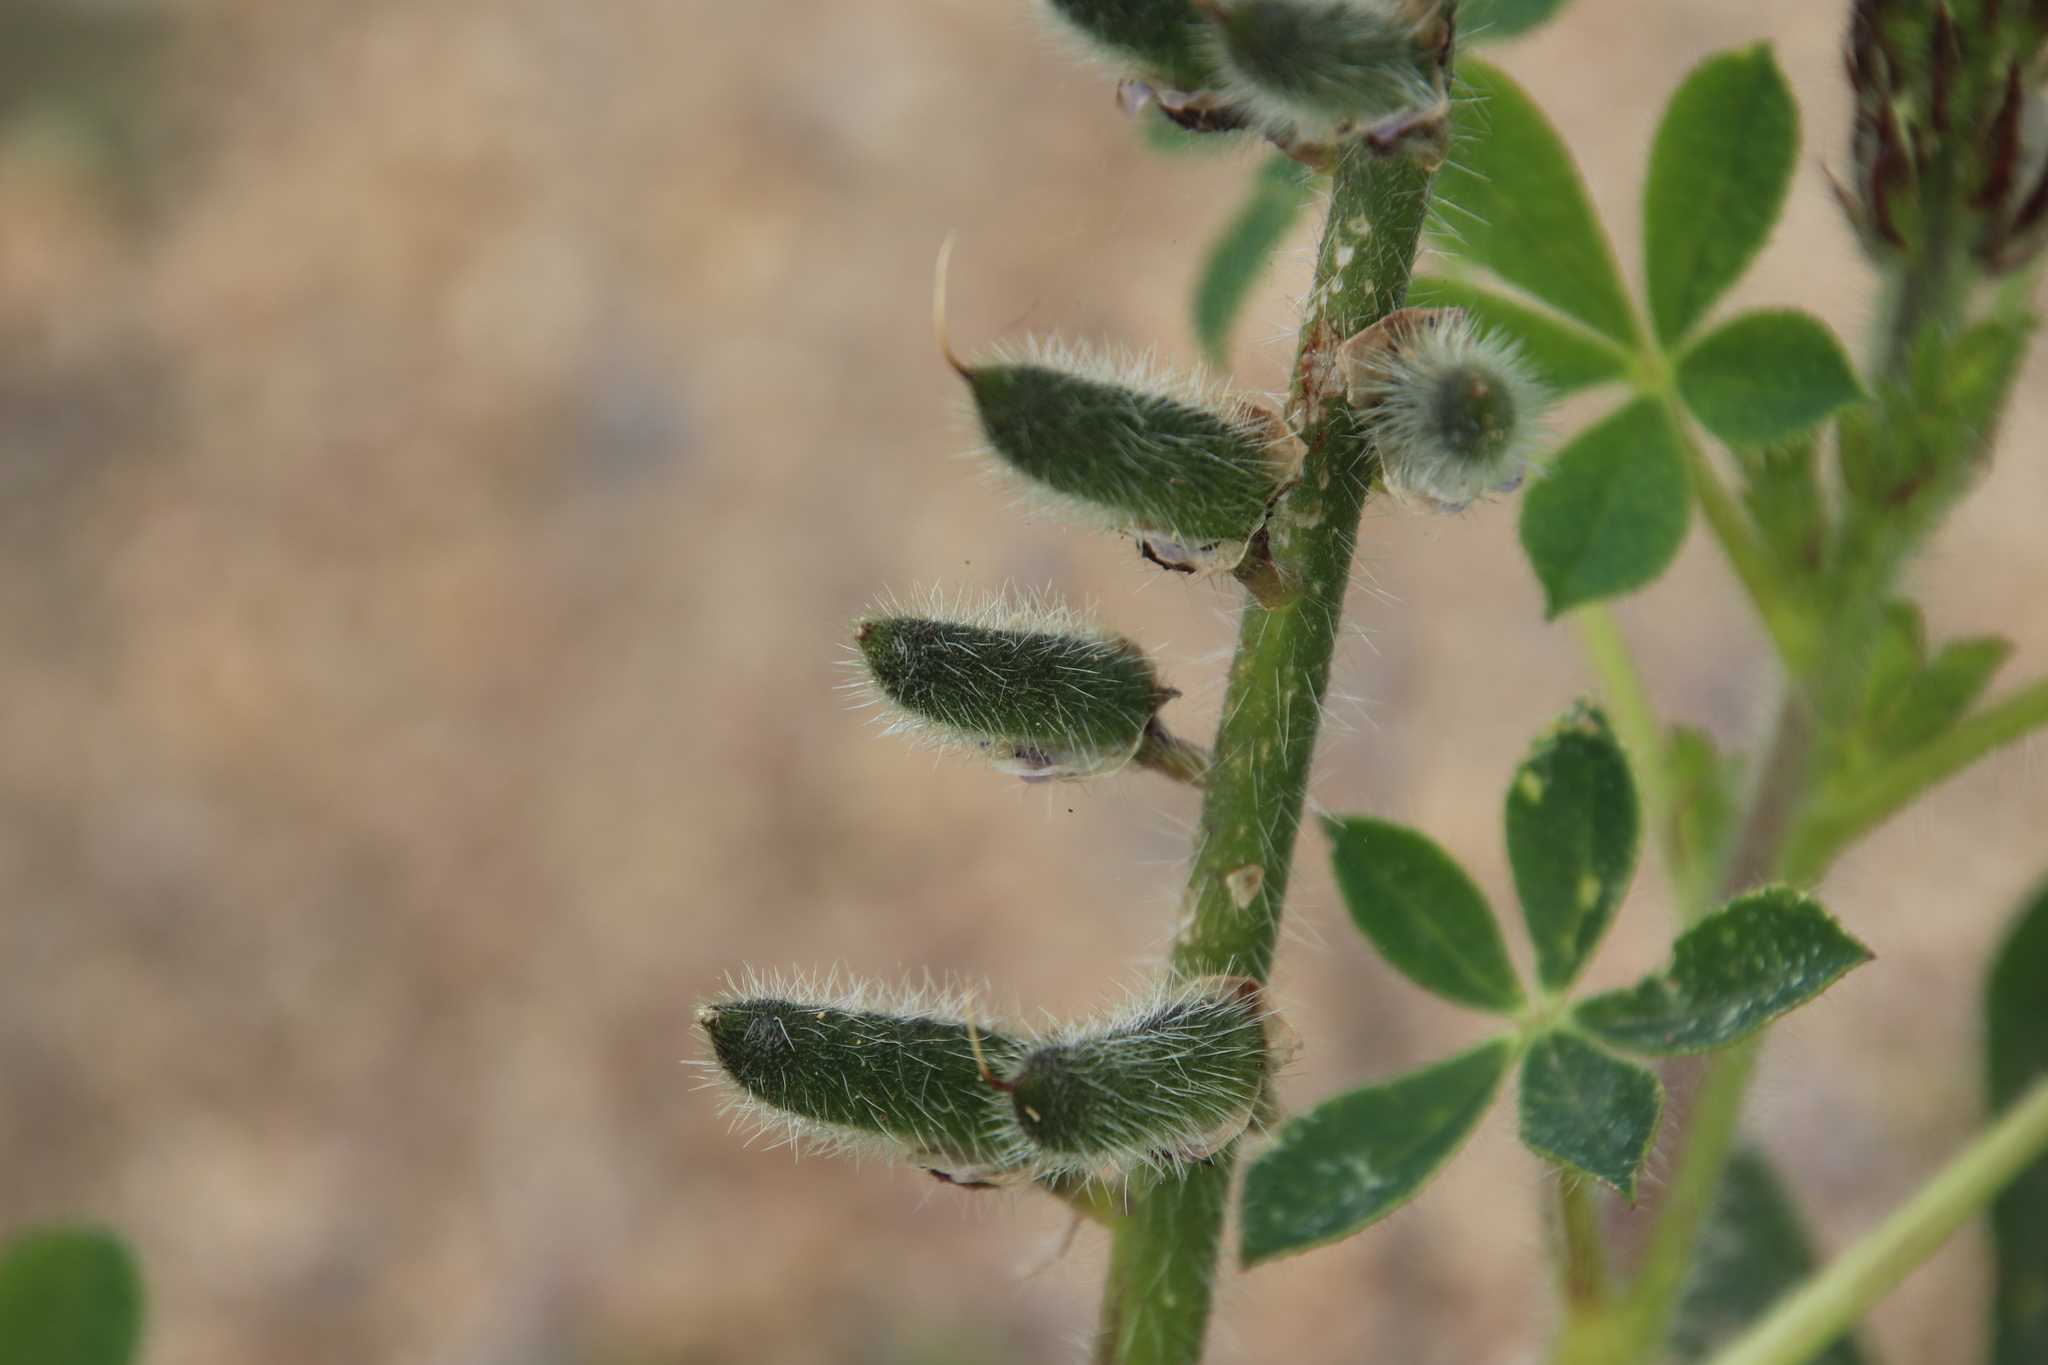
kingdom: Plantae
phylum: Tracheophyta
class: Magnoliopsida
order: Fabales
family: Fabaceae
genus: Lupinus
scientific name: Lupinus hirsutissimus
